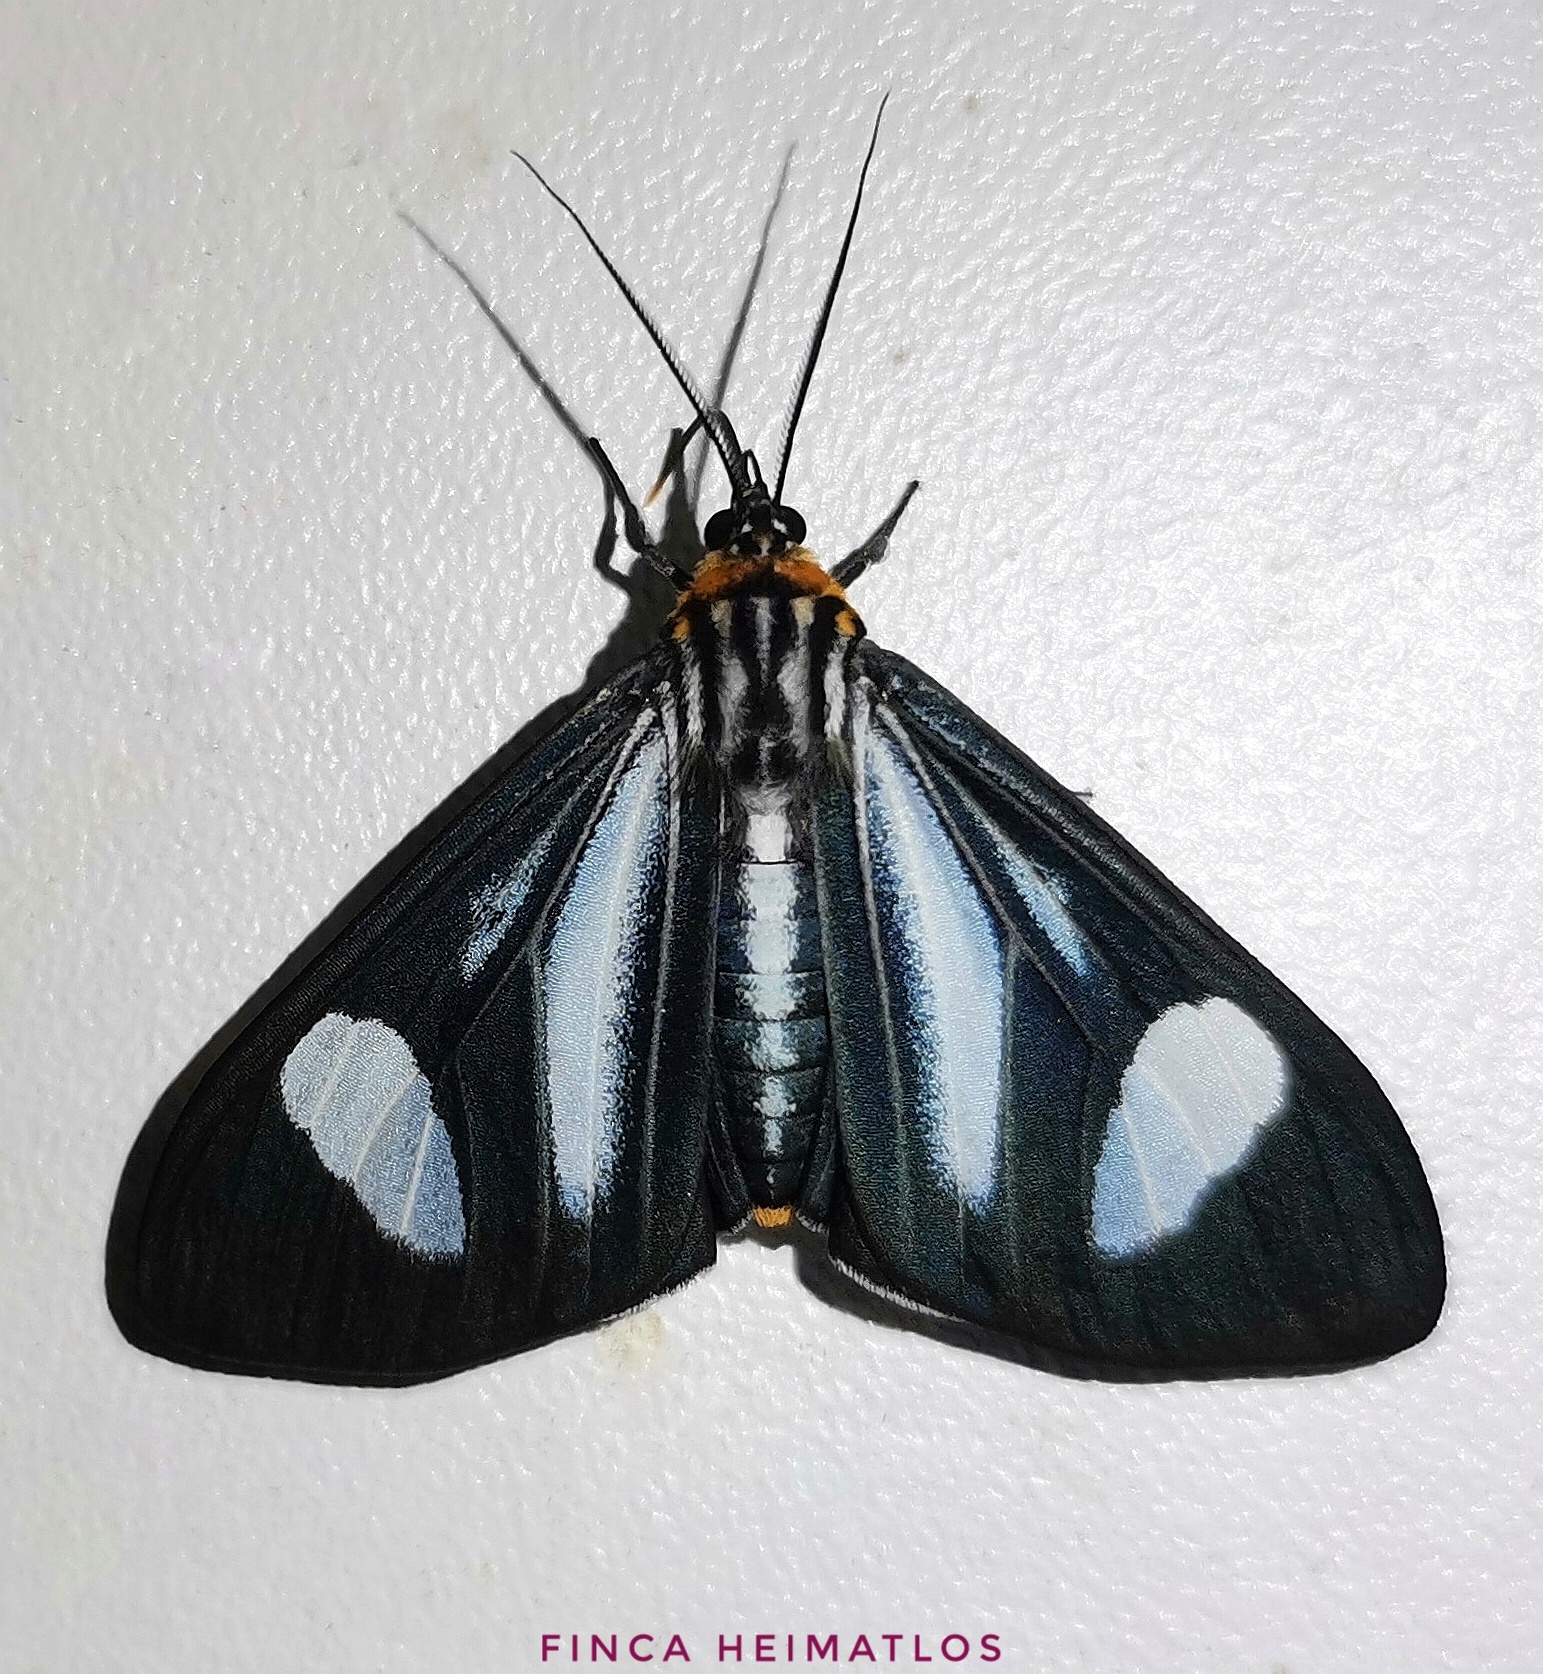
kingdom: Animalia
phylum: Arthropoda
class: Insecta
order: Lepidoptera
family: Erebidae
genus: Calodesma
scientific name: Calodesma dioptis
